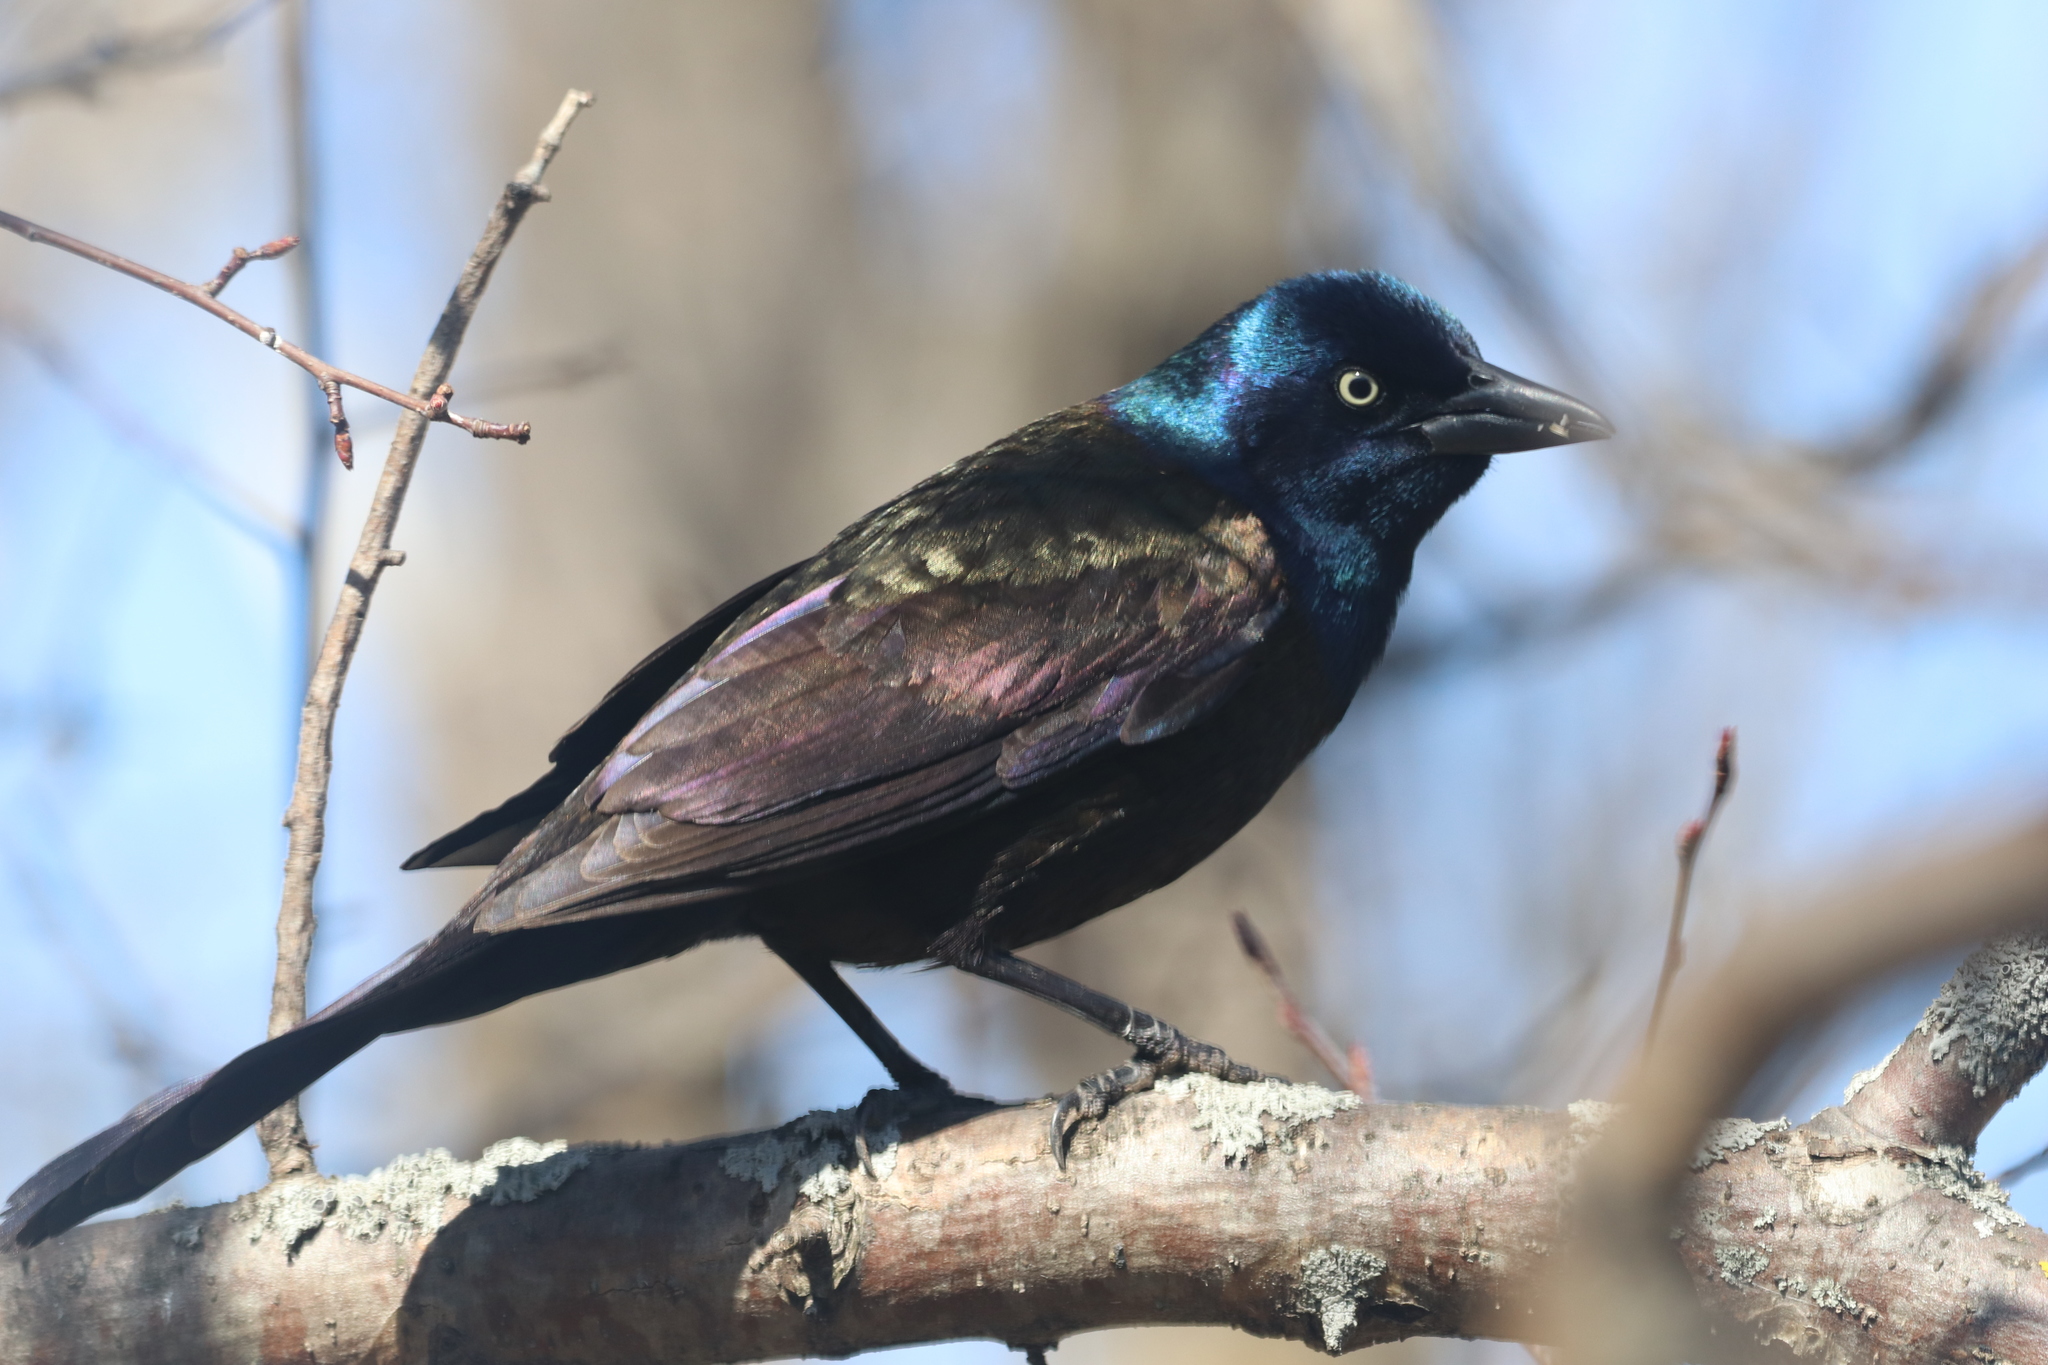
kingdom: Animalia
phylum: Chordata
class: Aves
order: Passeriformes
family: Icteridae
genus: Quiscalus
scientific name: Quiscalus quiscula
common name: Common grackle
